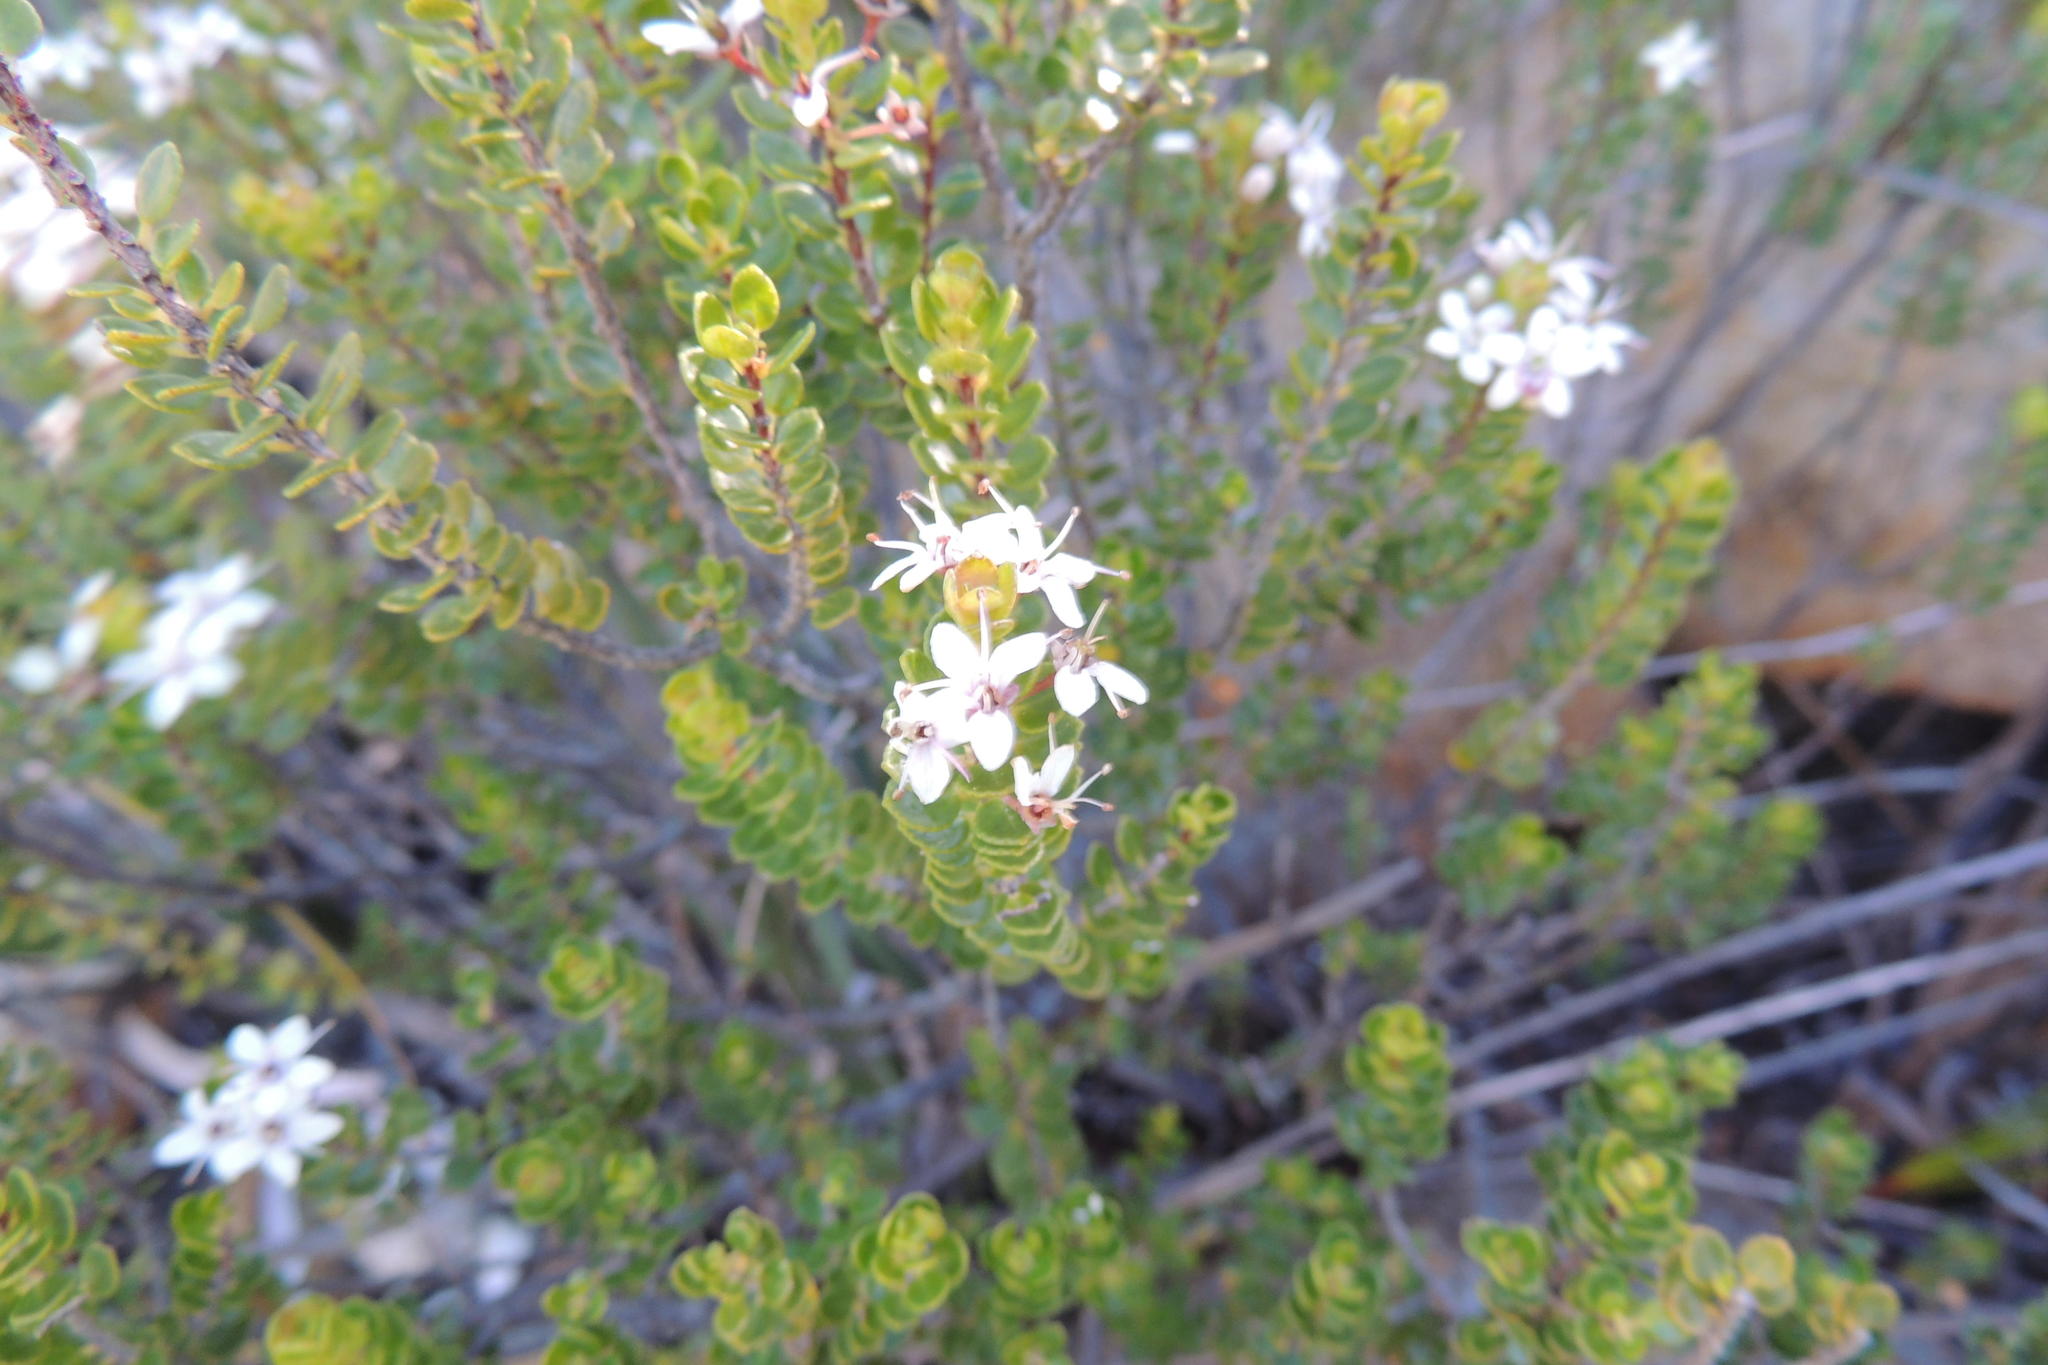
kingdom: Plantae
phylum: Tracheophyta
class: Magnoliopsida
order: Sapindales
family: Rutaceae
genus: Agathosma
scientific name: Agathosma ovata
